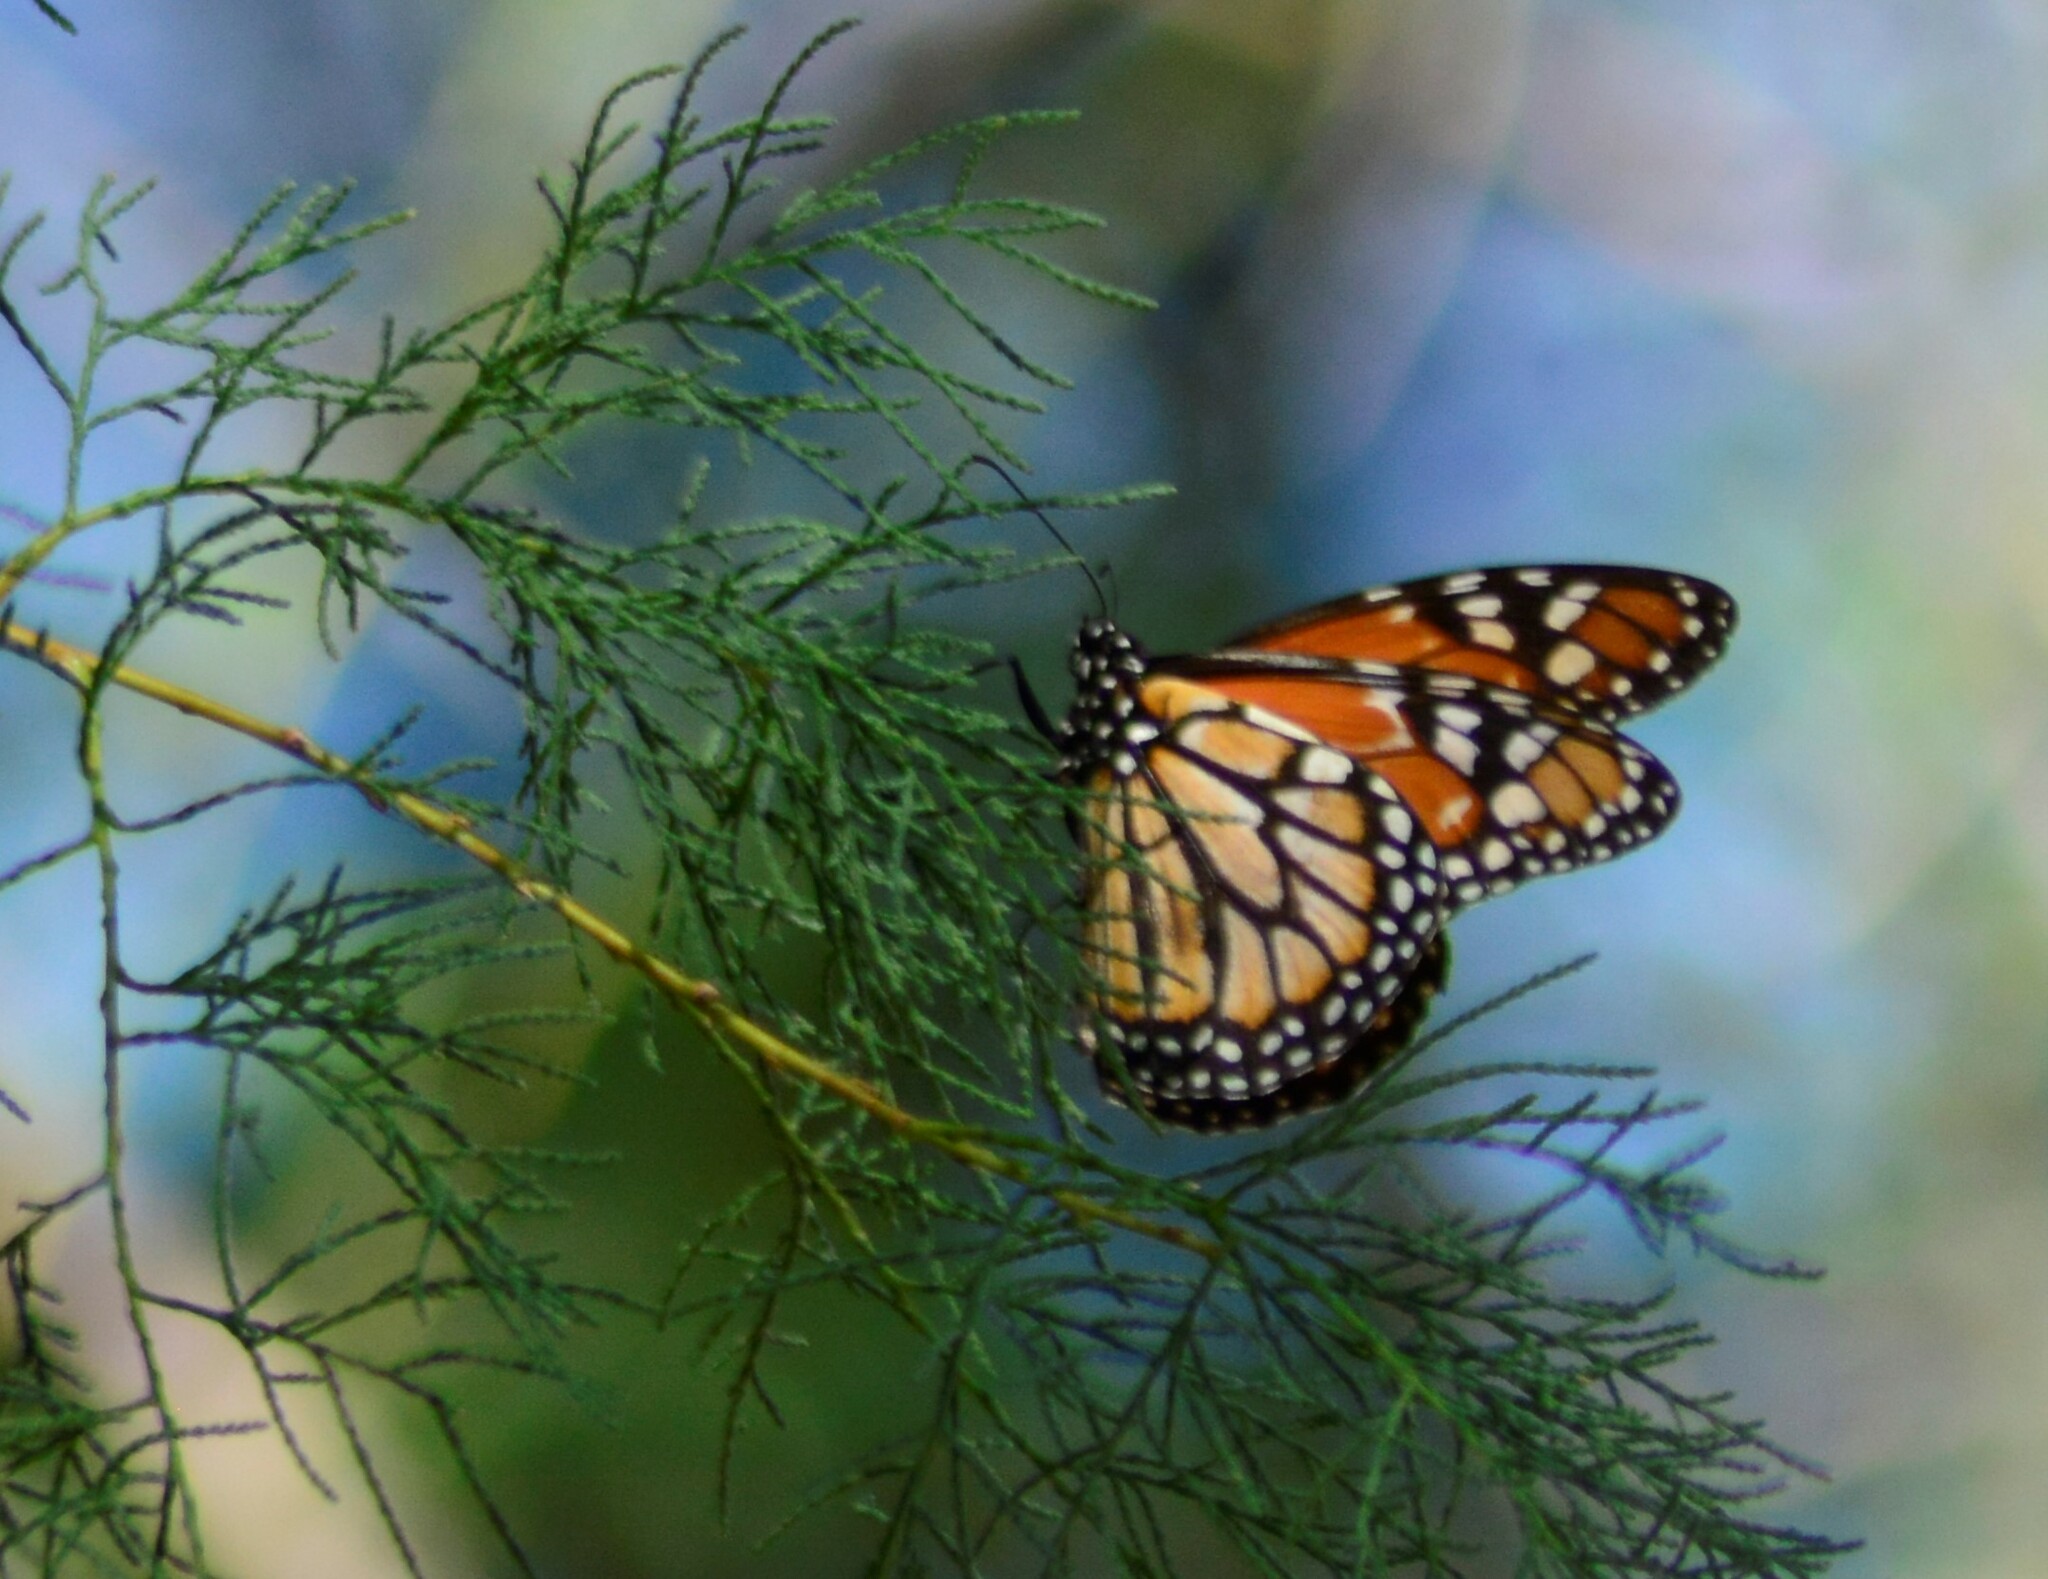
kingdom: Animalia
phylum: Arthropoda
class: Insecta
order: Lepidoptera
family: Nymphalidae
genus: Danaus
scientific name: Danaus erippus
